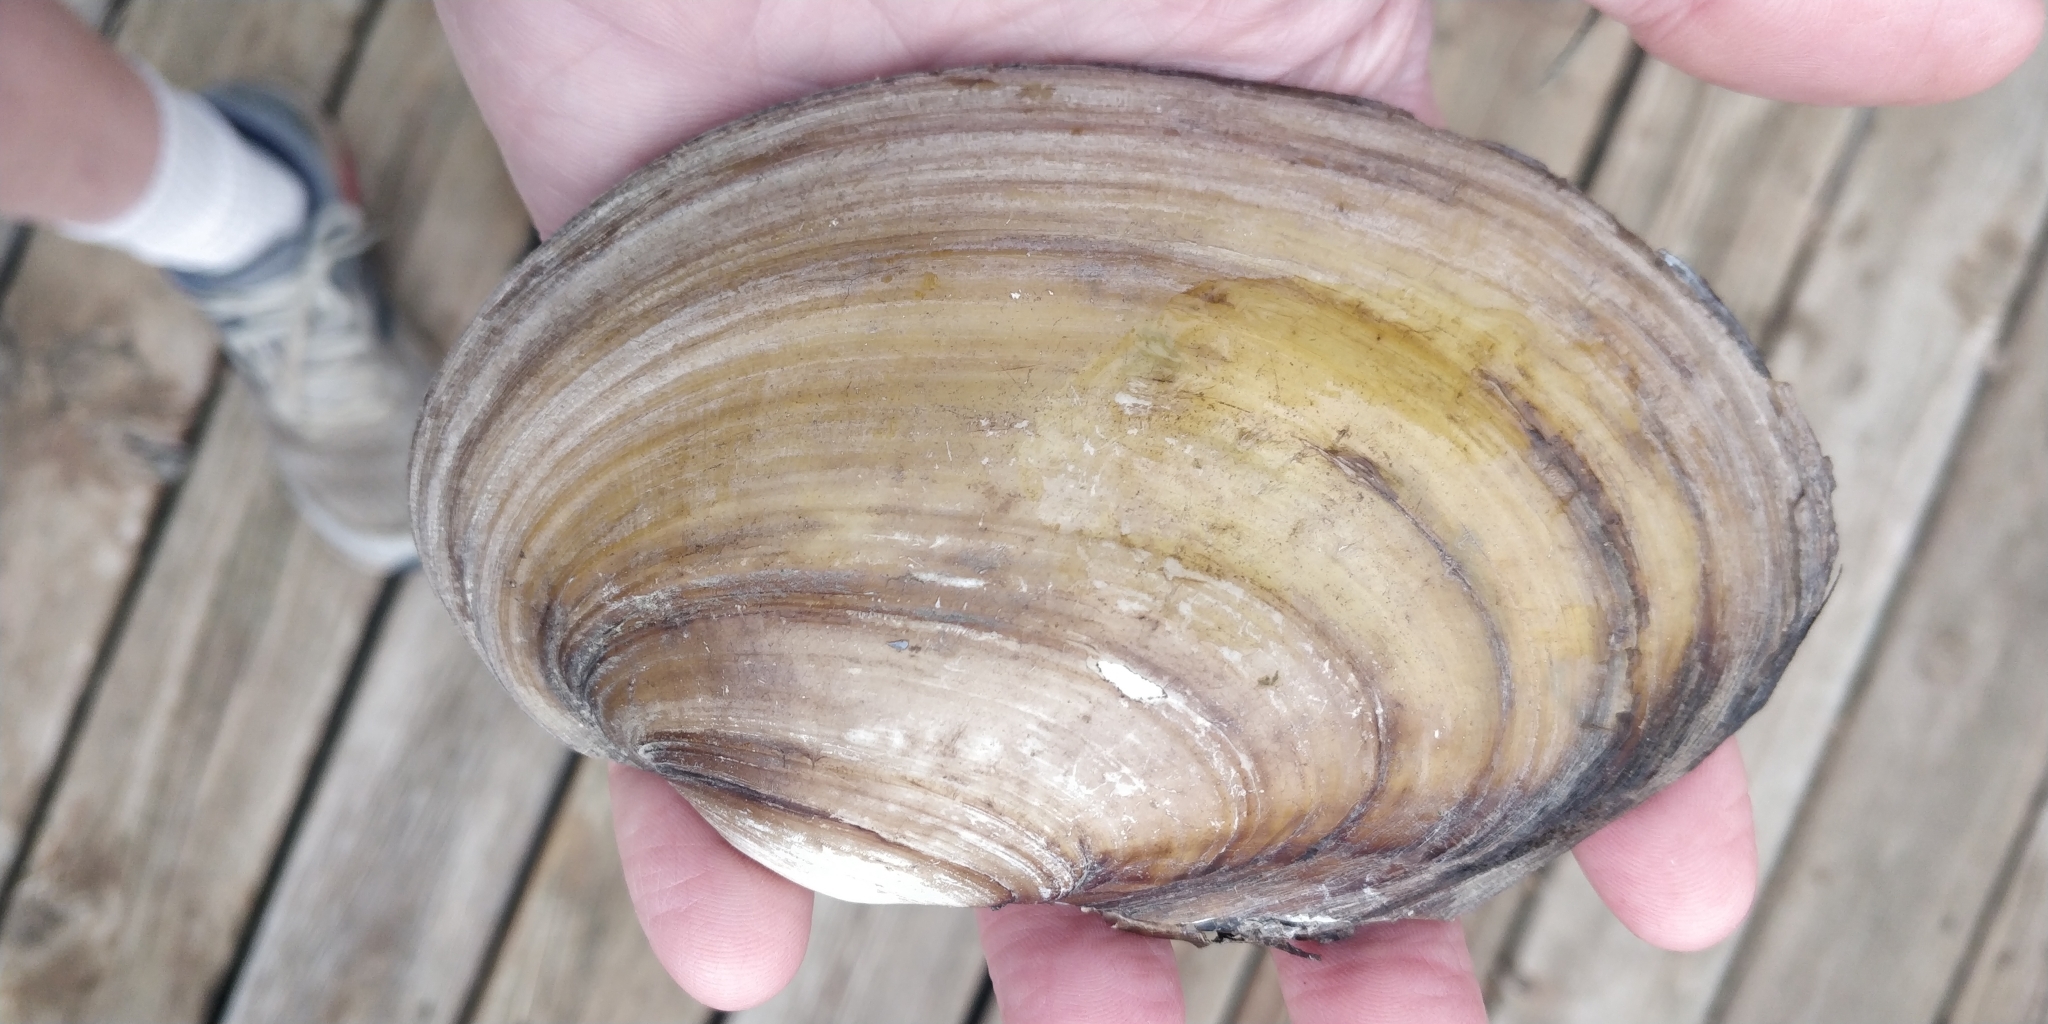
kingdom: Animalia
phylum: Mollusca
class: Bivalvia
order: Unionida
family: Unionidae
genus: Potamilus
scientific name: Potamilus fragilis
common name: Fragile papershell
